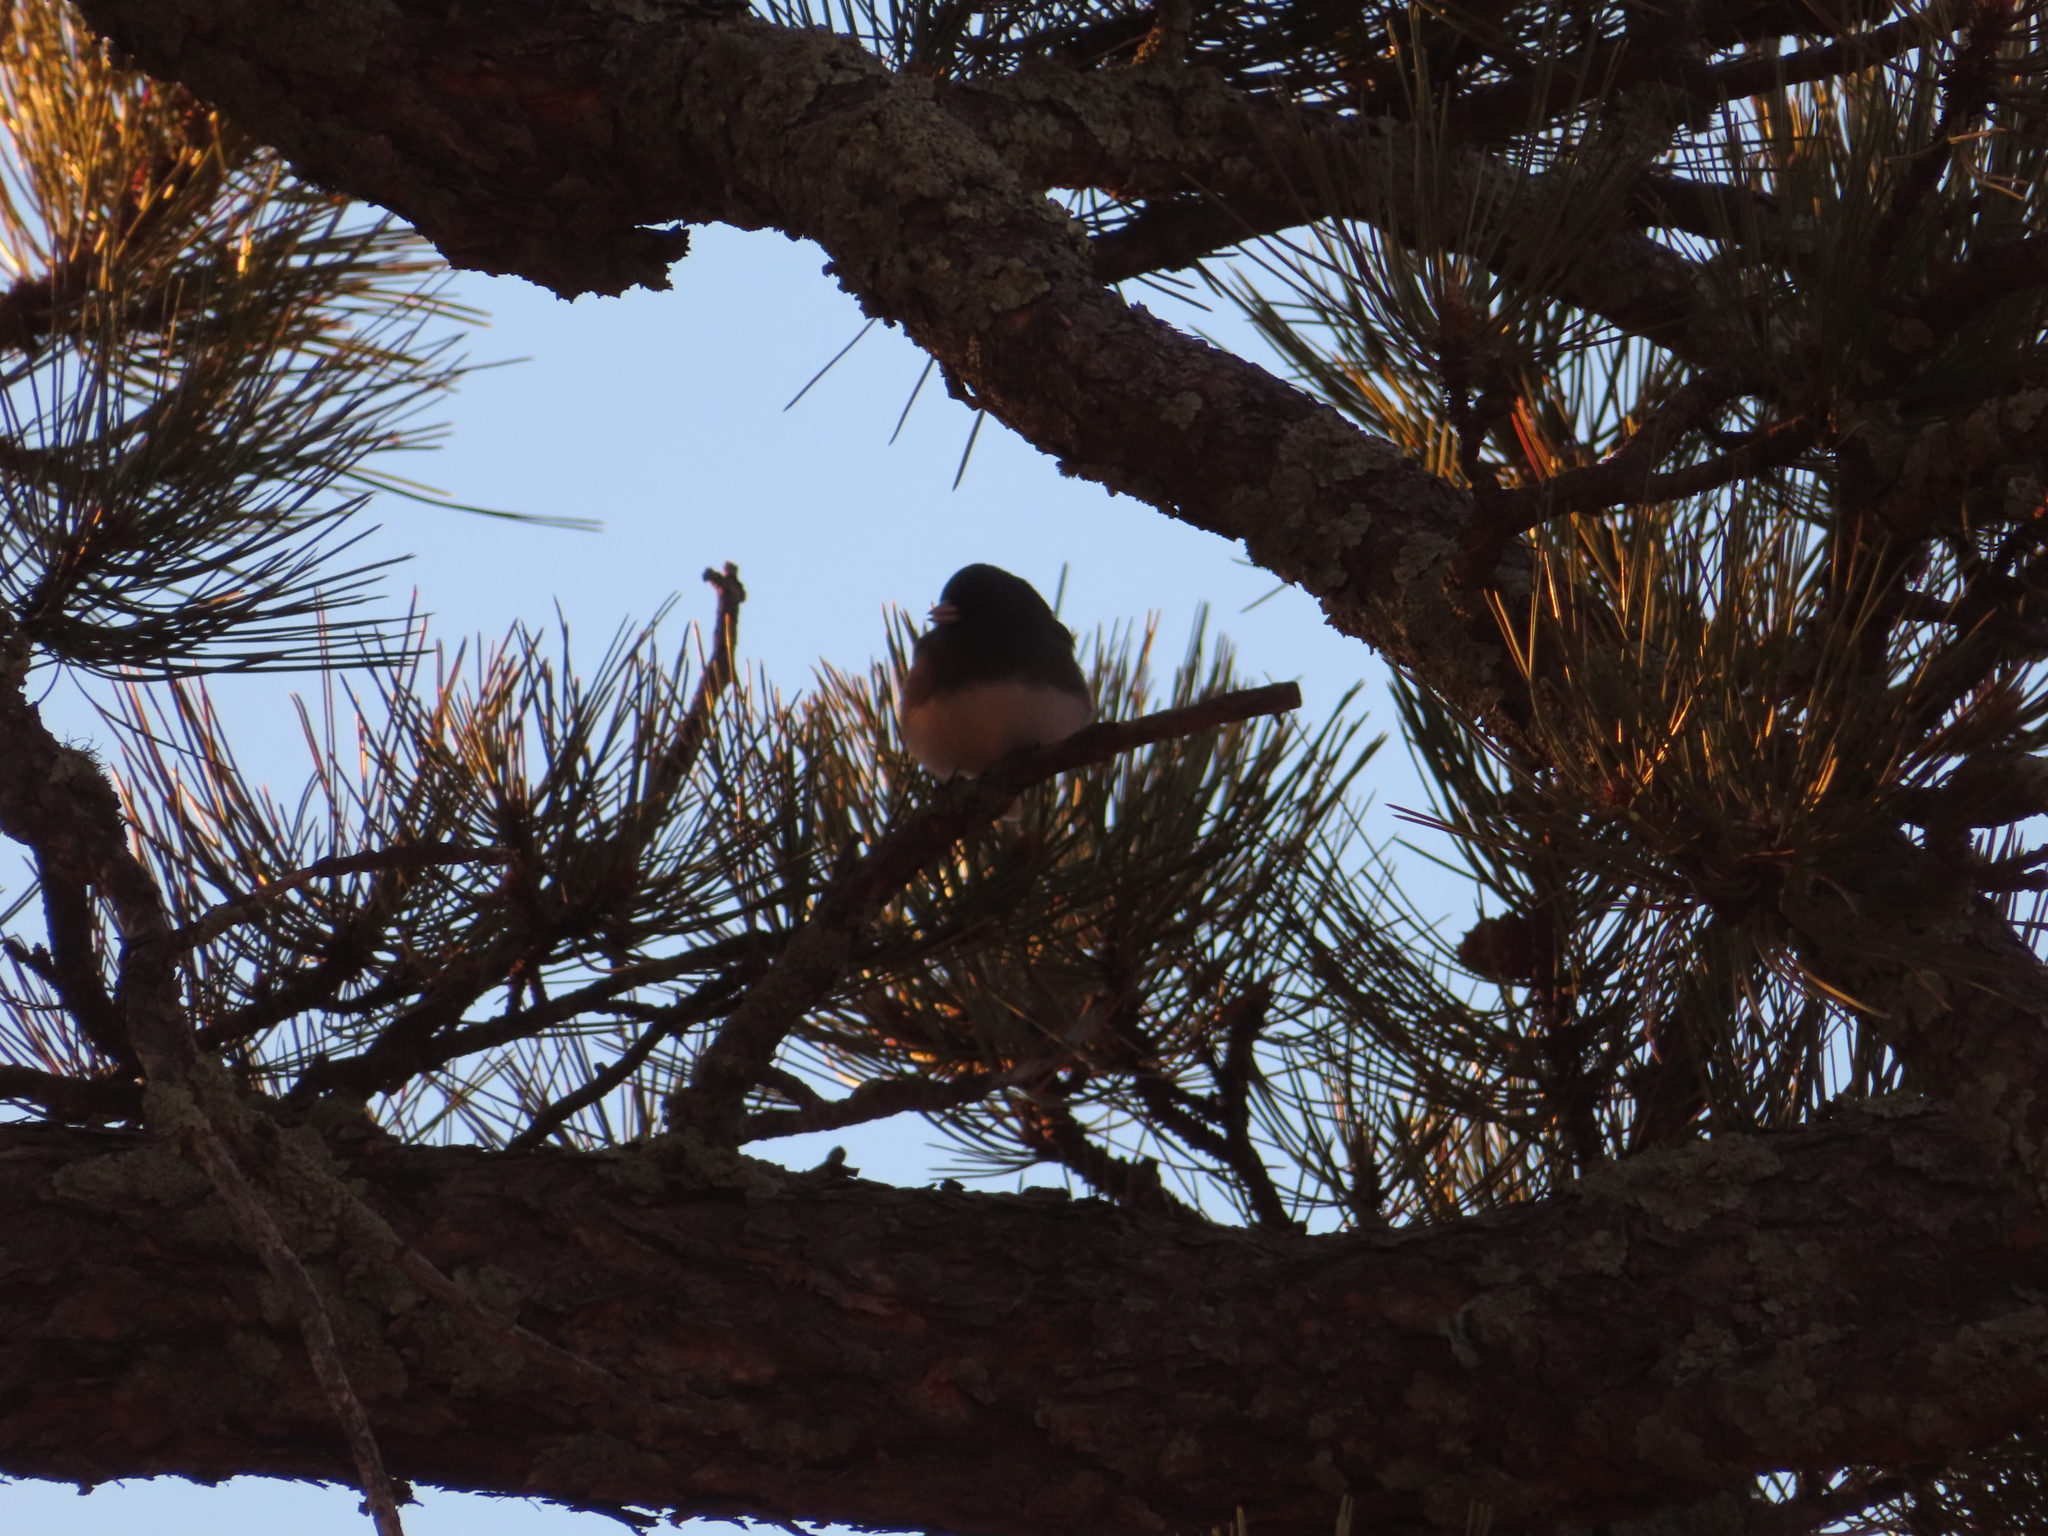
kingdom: Animalia
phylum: Chordata
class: Aves
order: Passeriformes
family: Passerellidae
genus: Junco
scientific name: Junco hyemalis
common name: Dark-eyed junco
